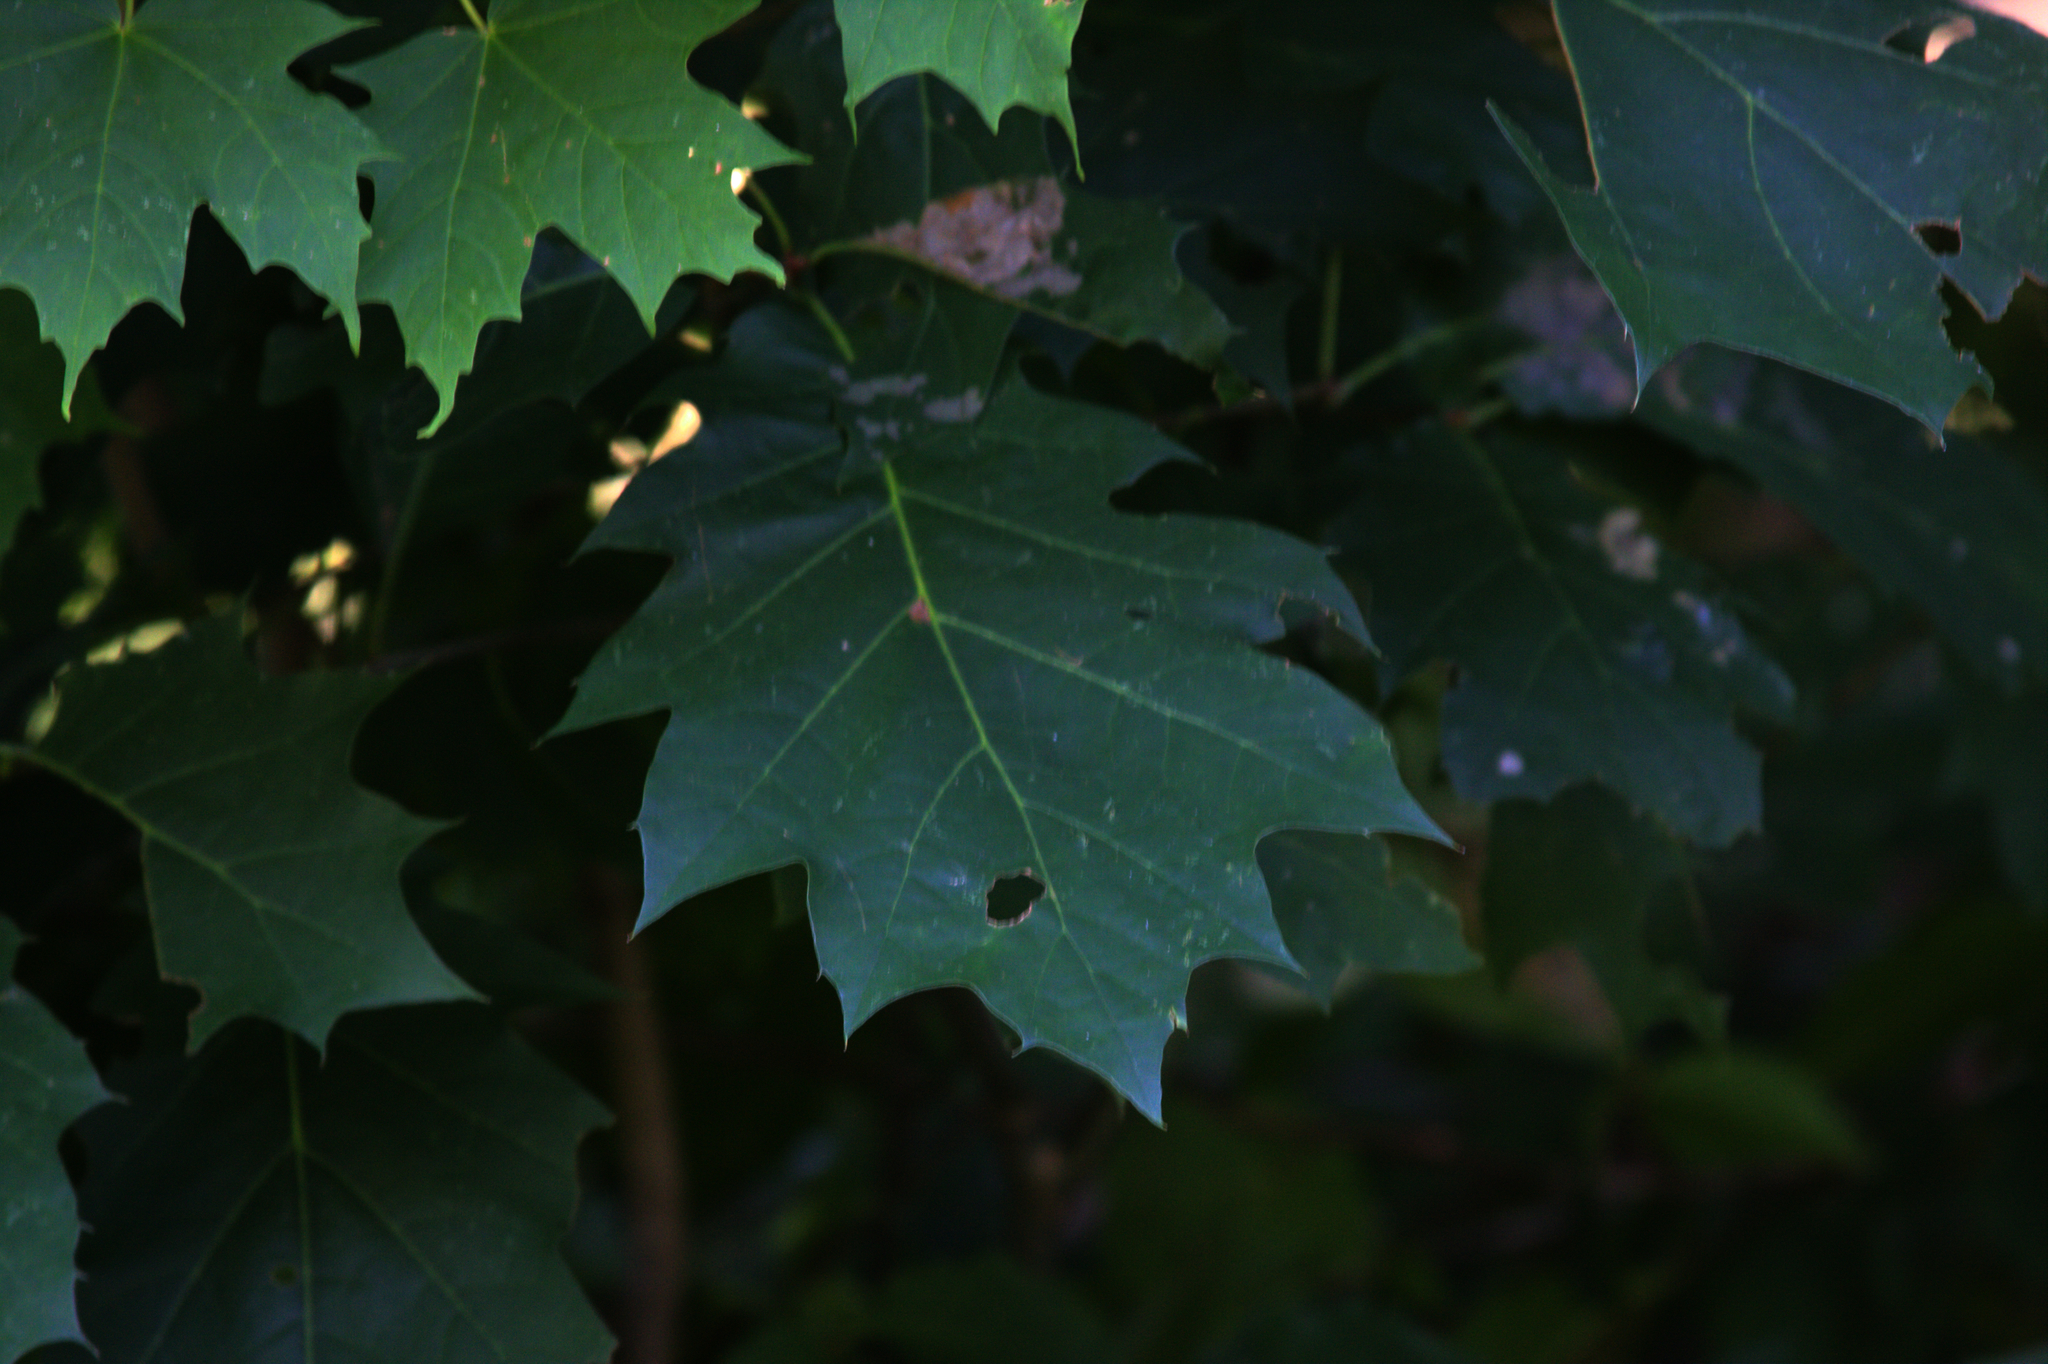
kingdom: Plantae
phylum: Tracheophyta
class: Magnoliopsida
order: Fagales
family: Fagaceae
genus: Quercus
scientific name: Quercus rubra
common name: Red oak
